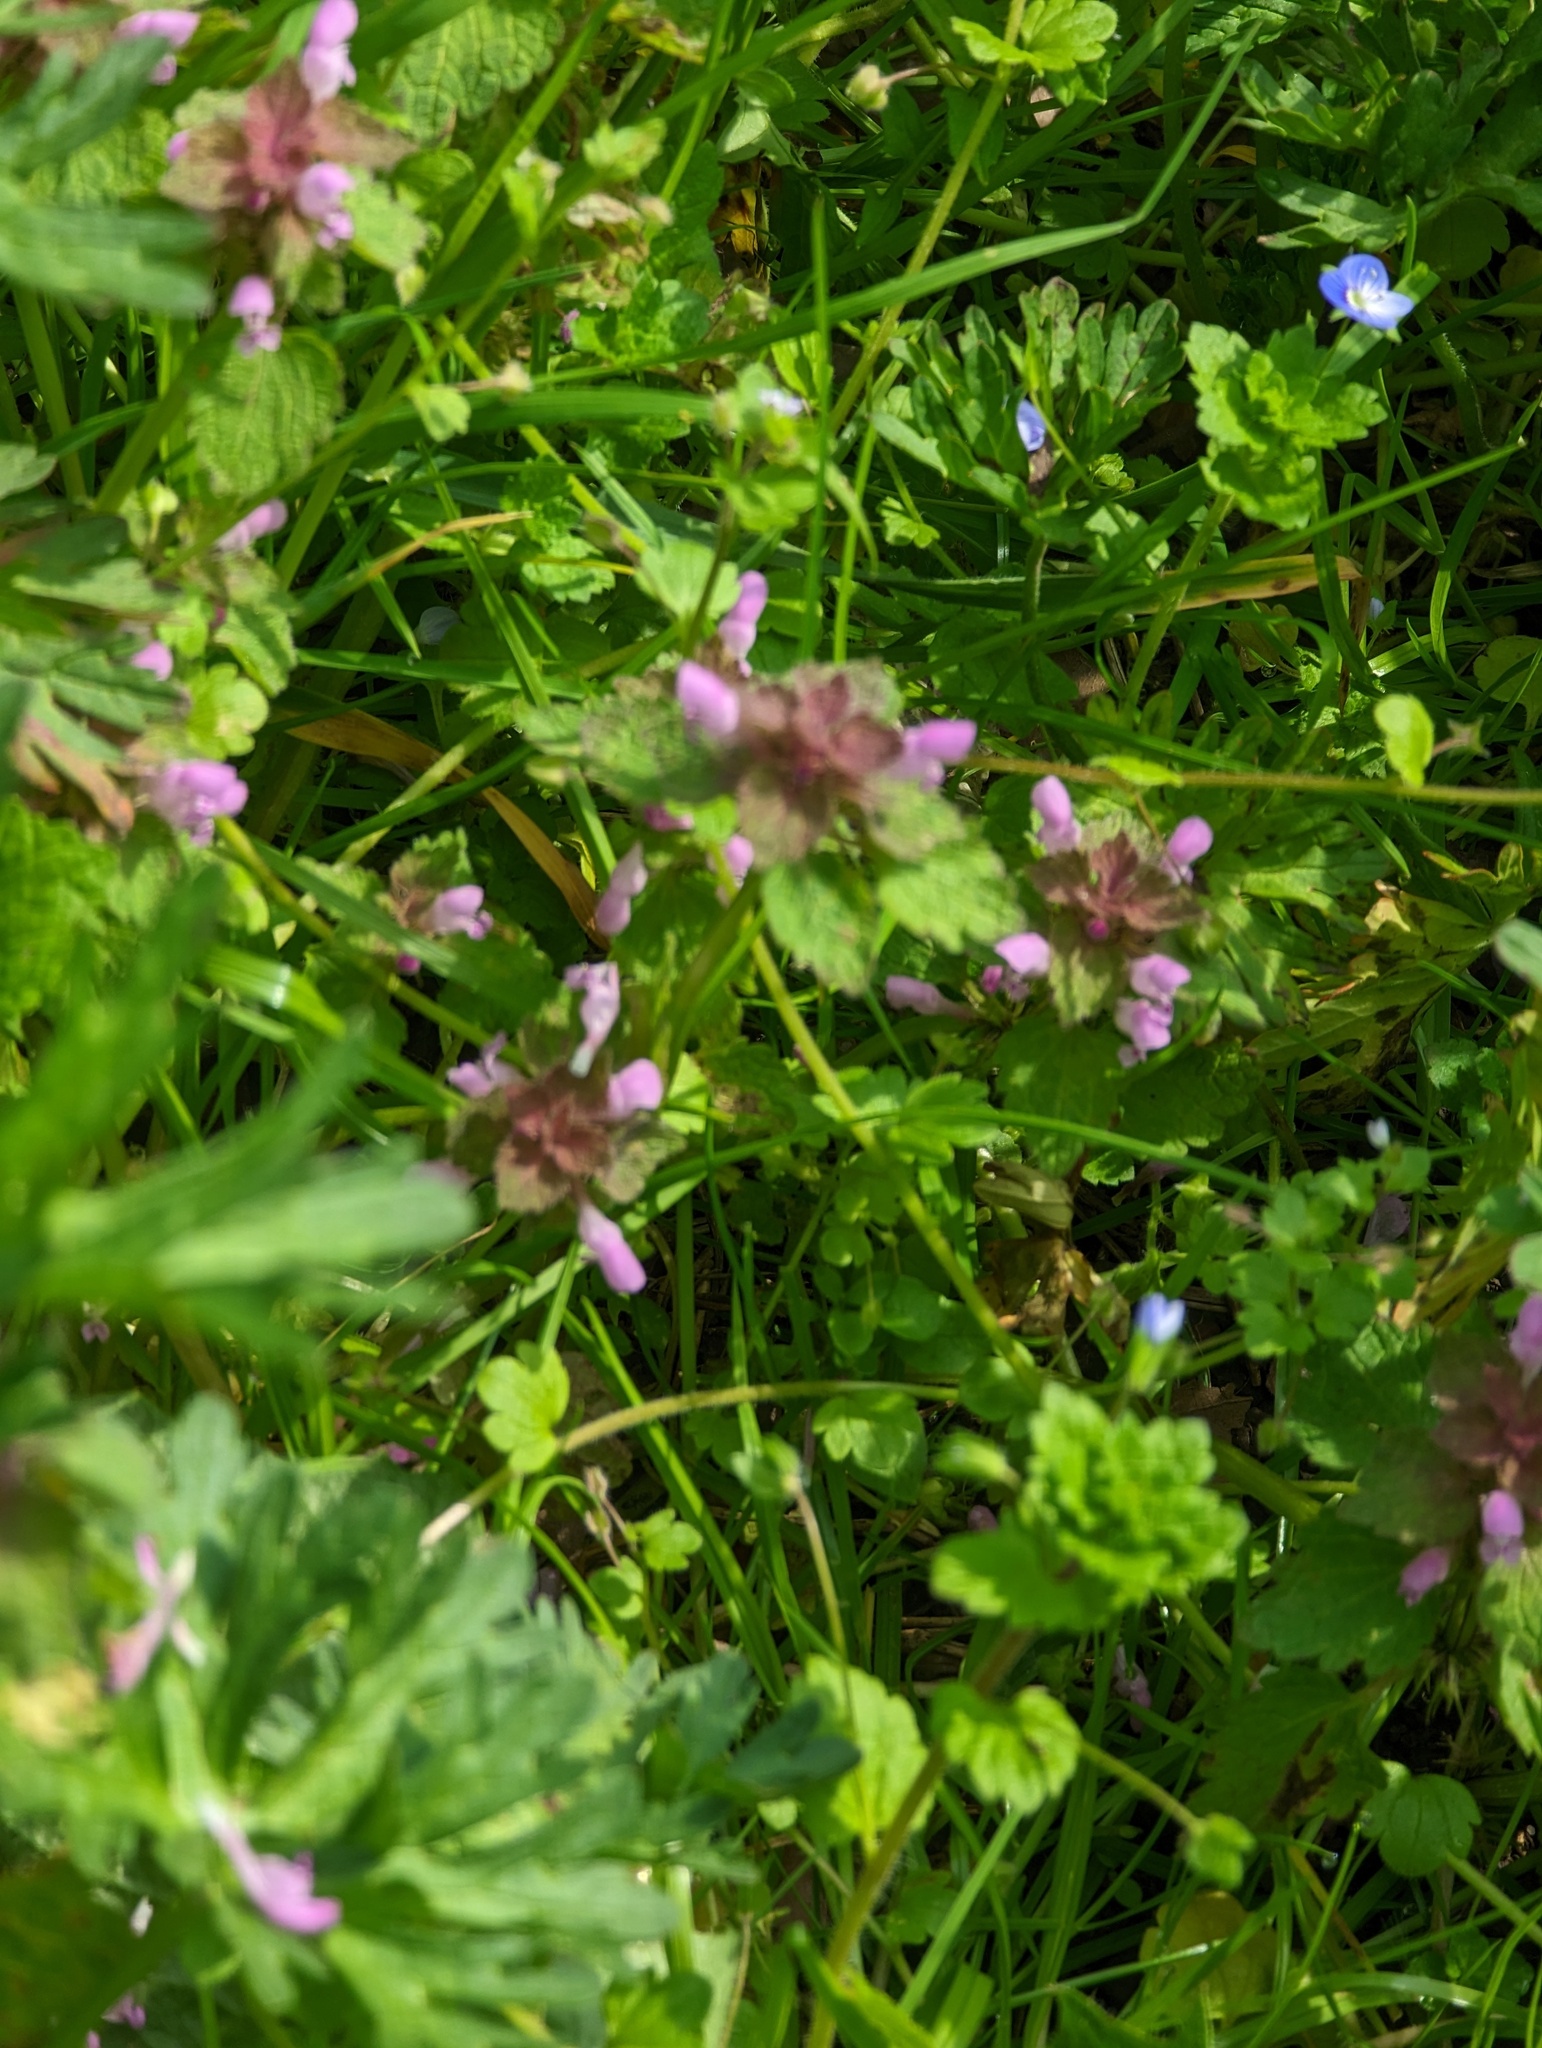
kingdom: Plantae
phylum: Tracheophyta
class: Magnoliopsida
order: Lamiales
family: Lamiaceae
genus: Lamium
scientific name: Lamium purpureum
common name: Red dead-nettle
